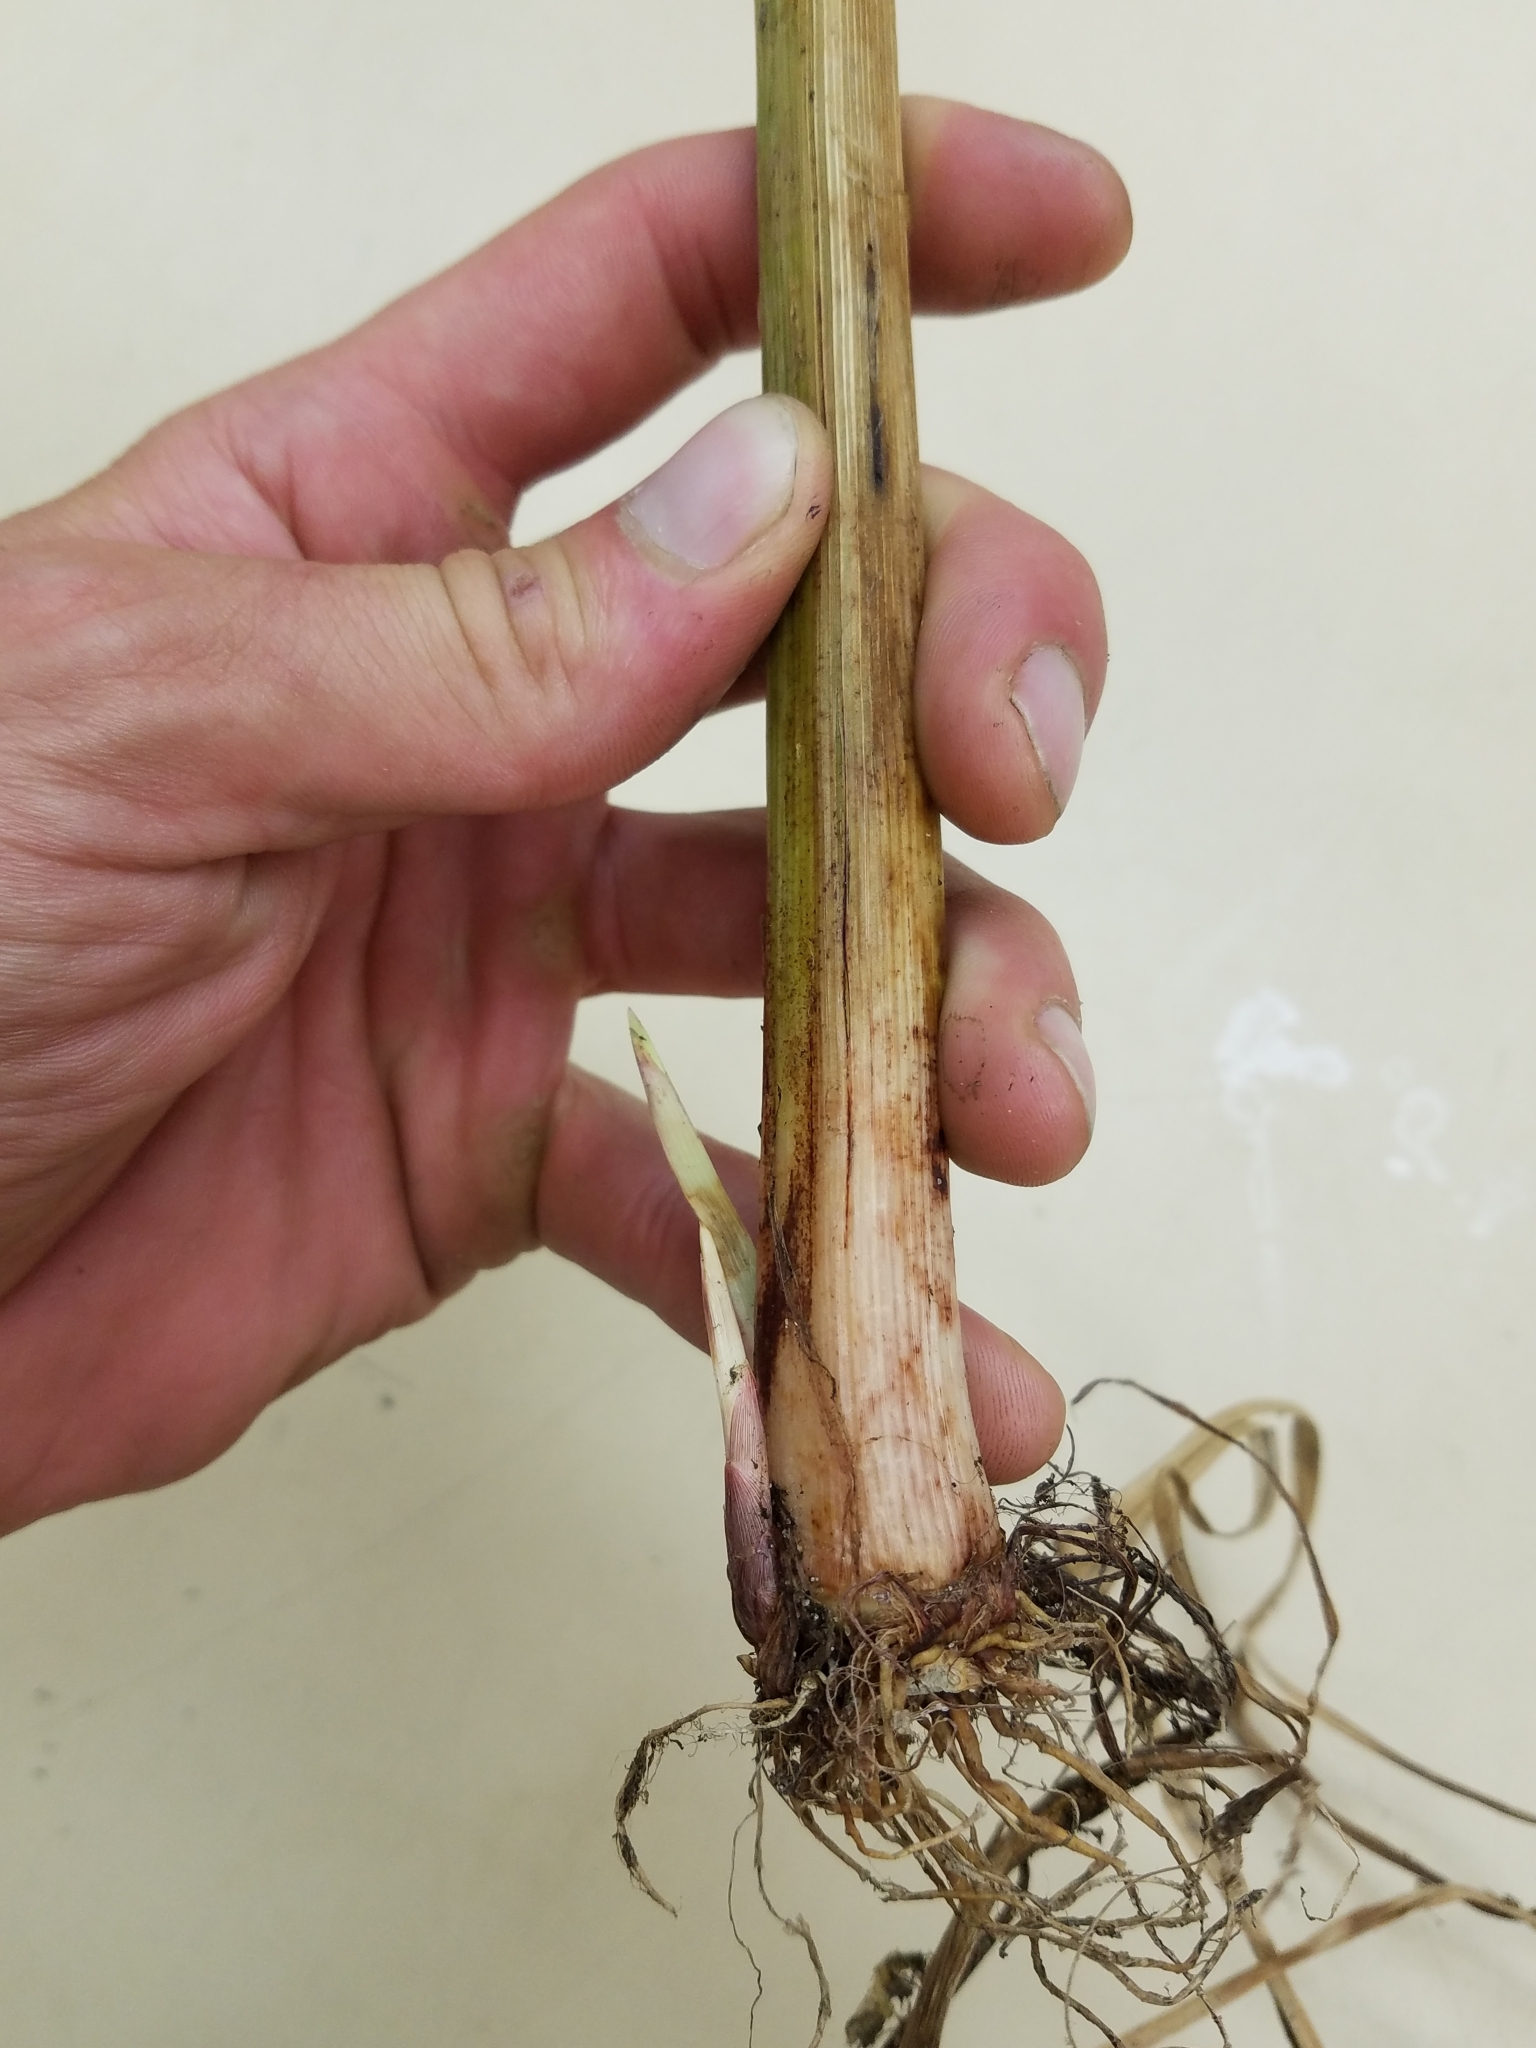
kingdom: Plantae
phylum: Tracheophyta
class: Liliopsida
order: Poales
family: Cyperaceae
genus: Cyperus
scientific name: Cyperus odoratus
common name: Fragrant flatsedge
